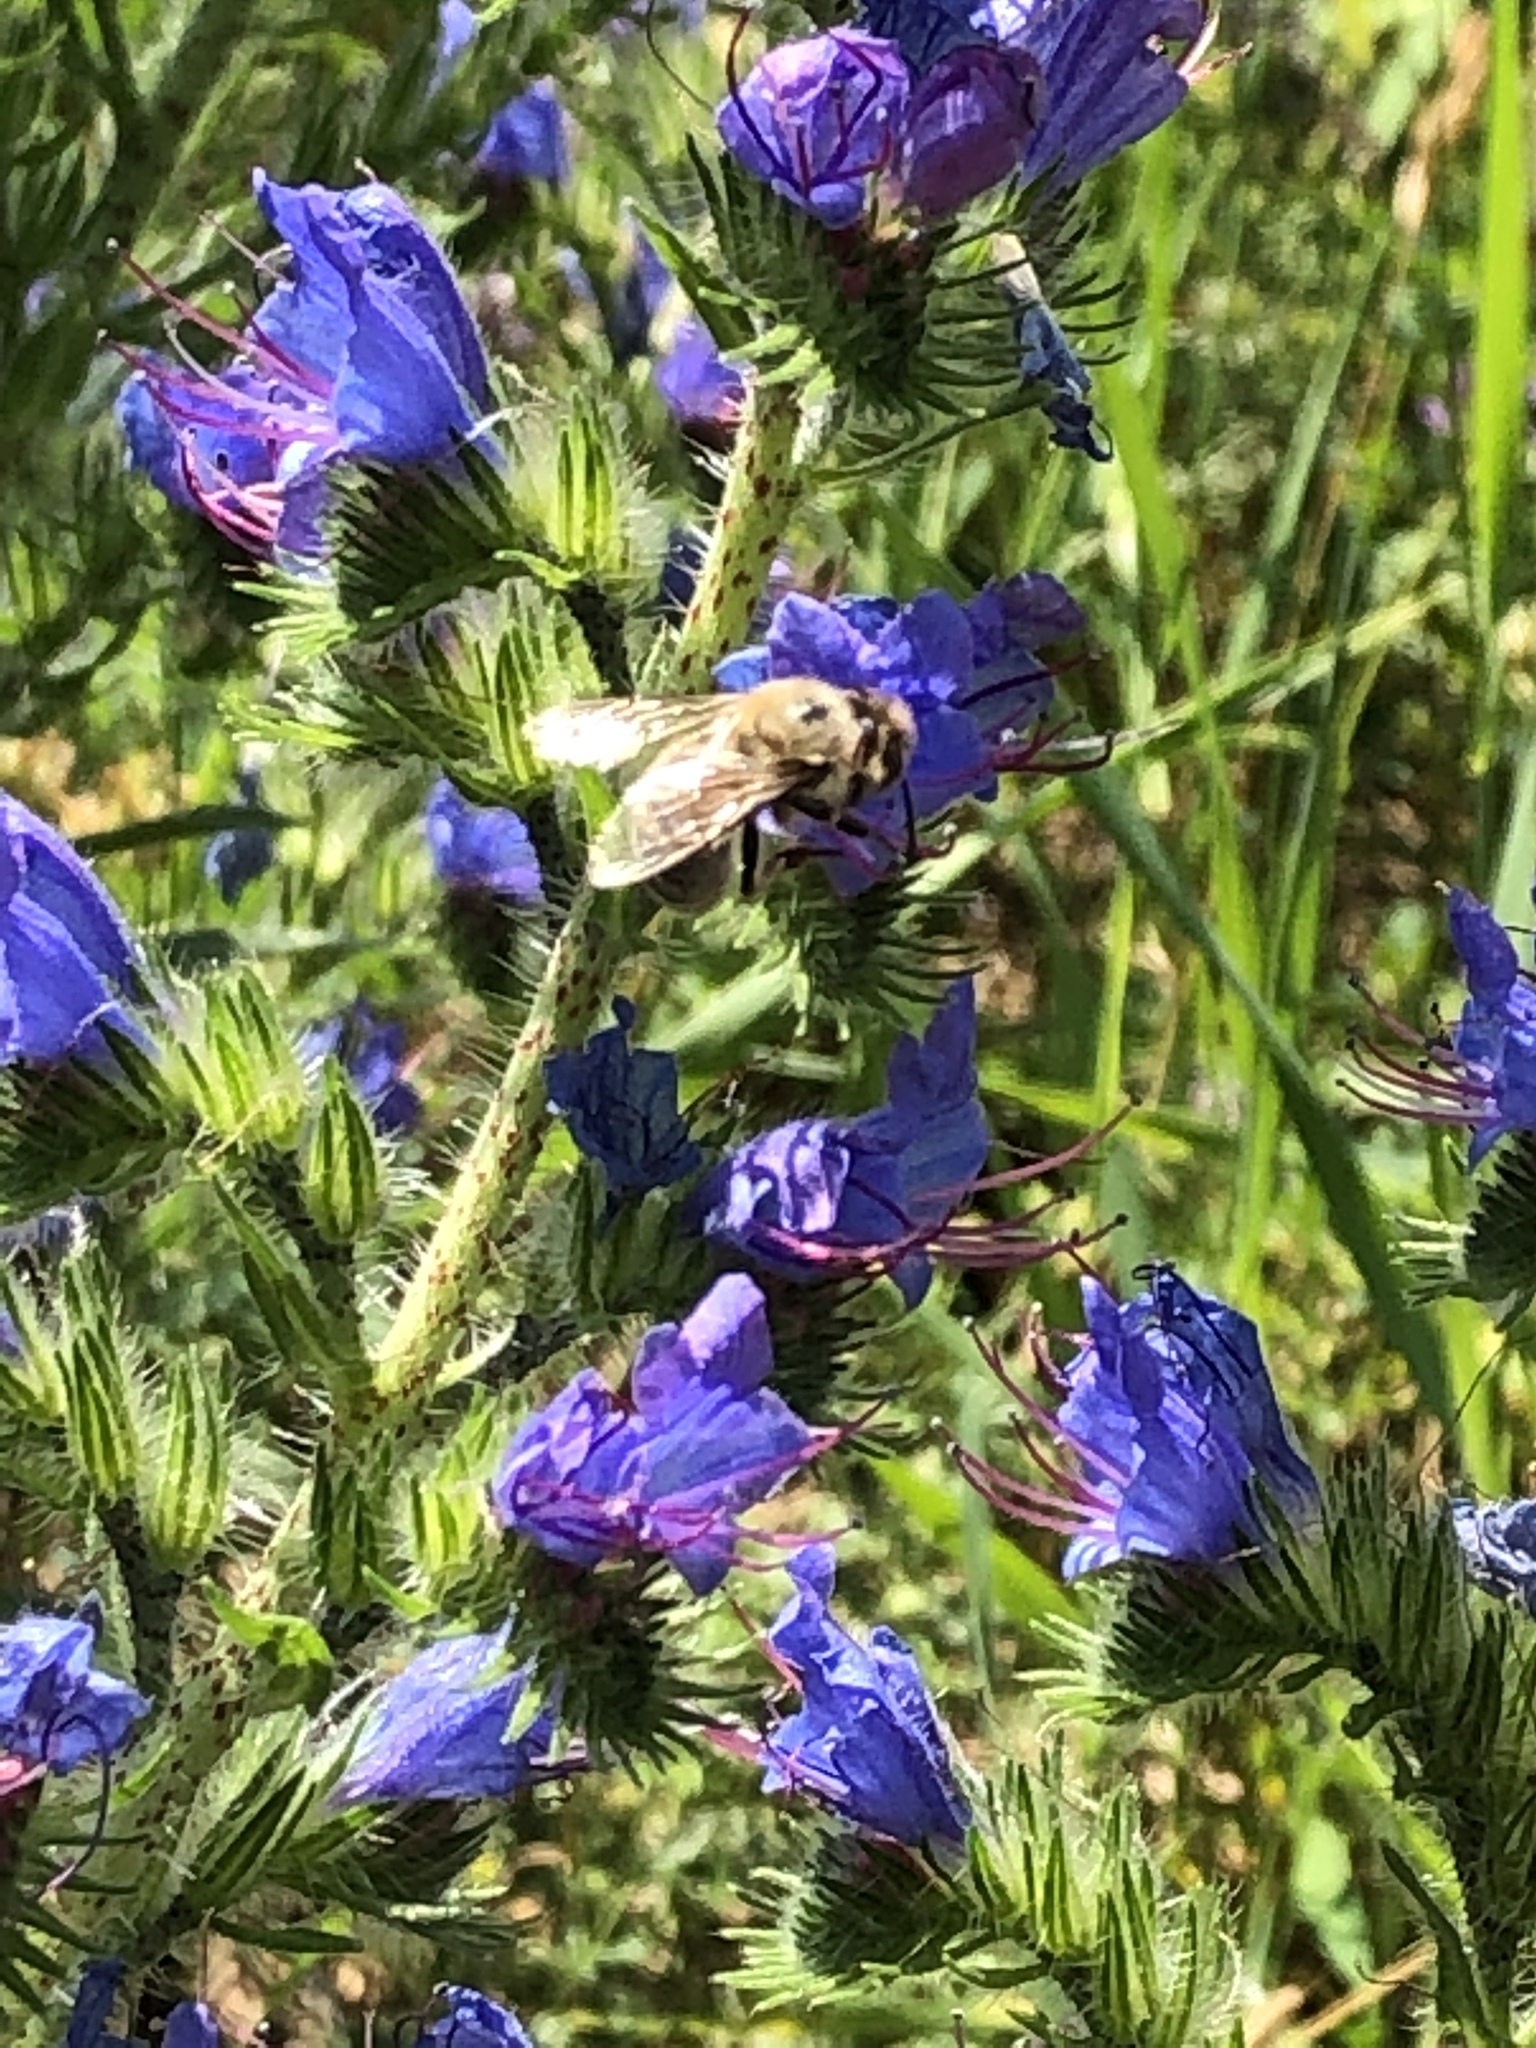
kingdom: Animalia
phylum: Arthropoda
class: Insecta
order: Hymenoptera
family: Apidae
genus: Apis
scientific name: Apis mellifera
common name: Honey bee
